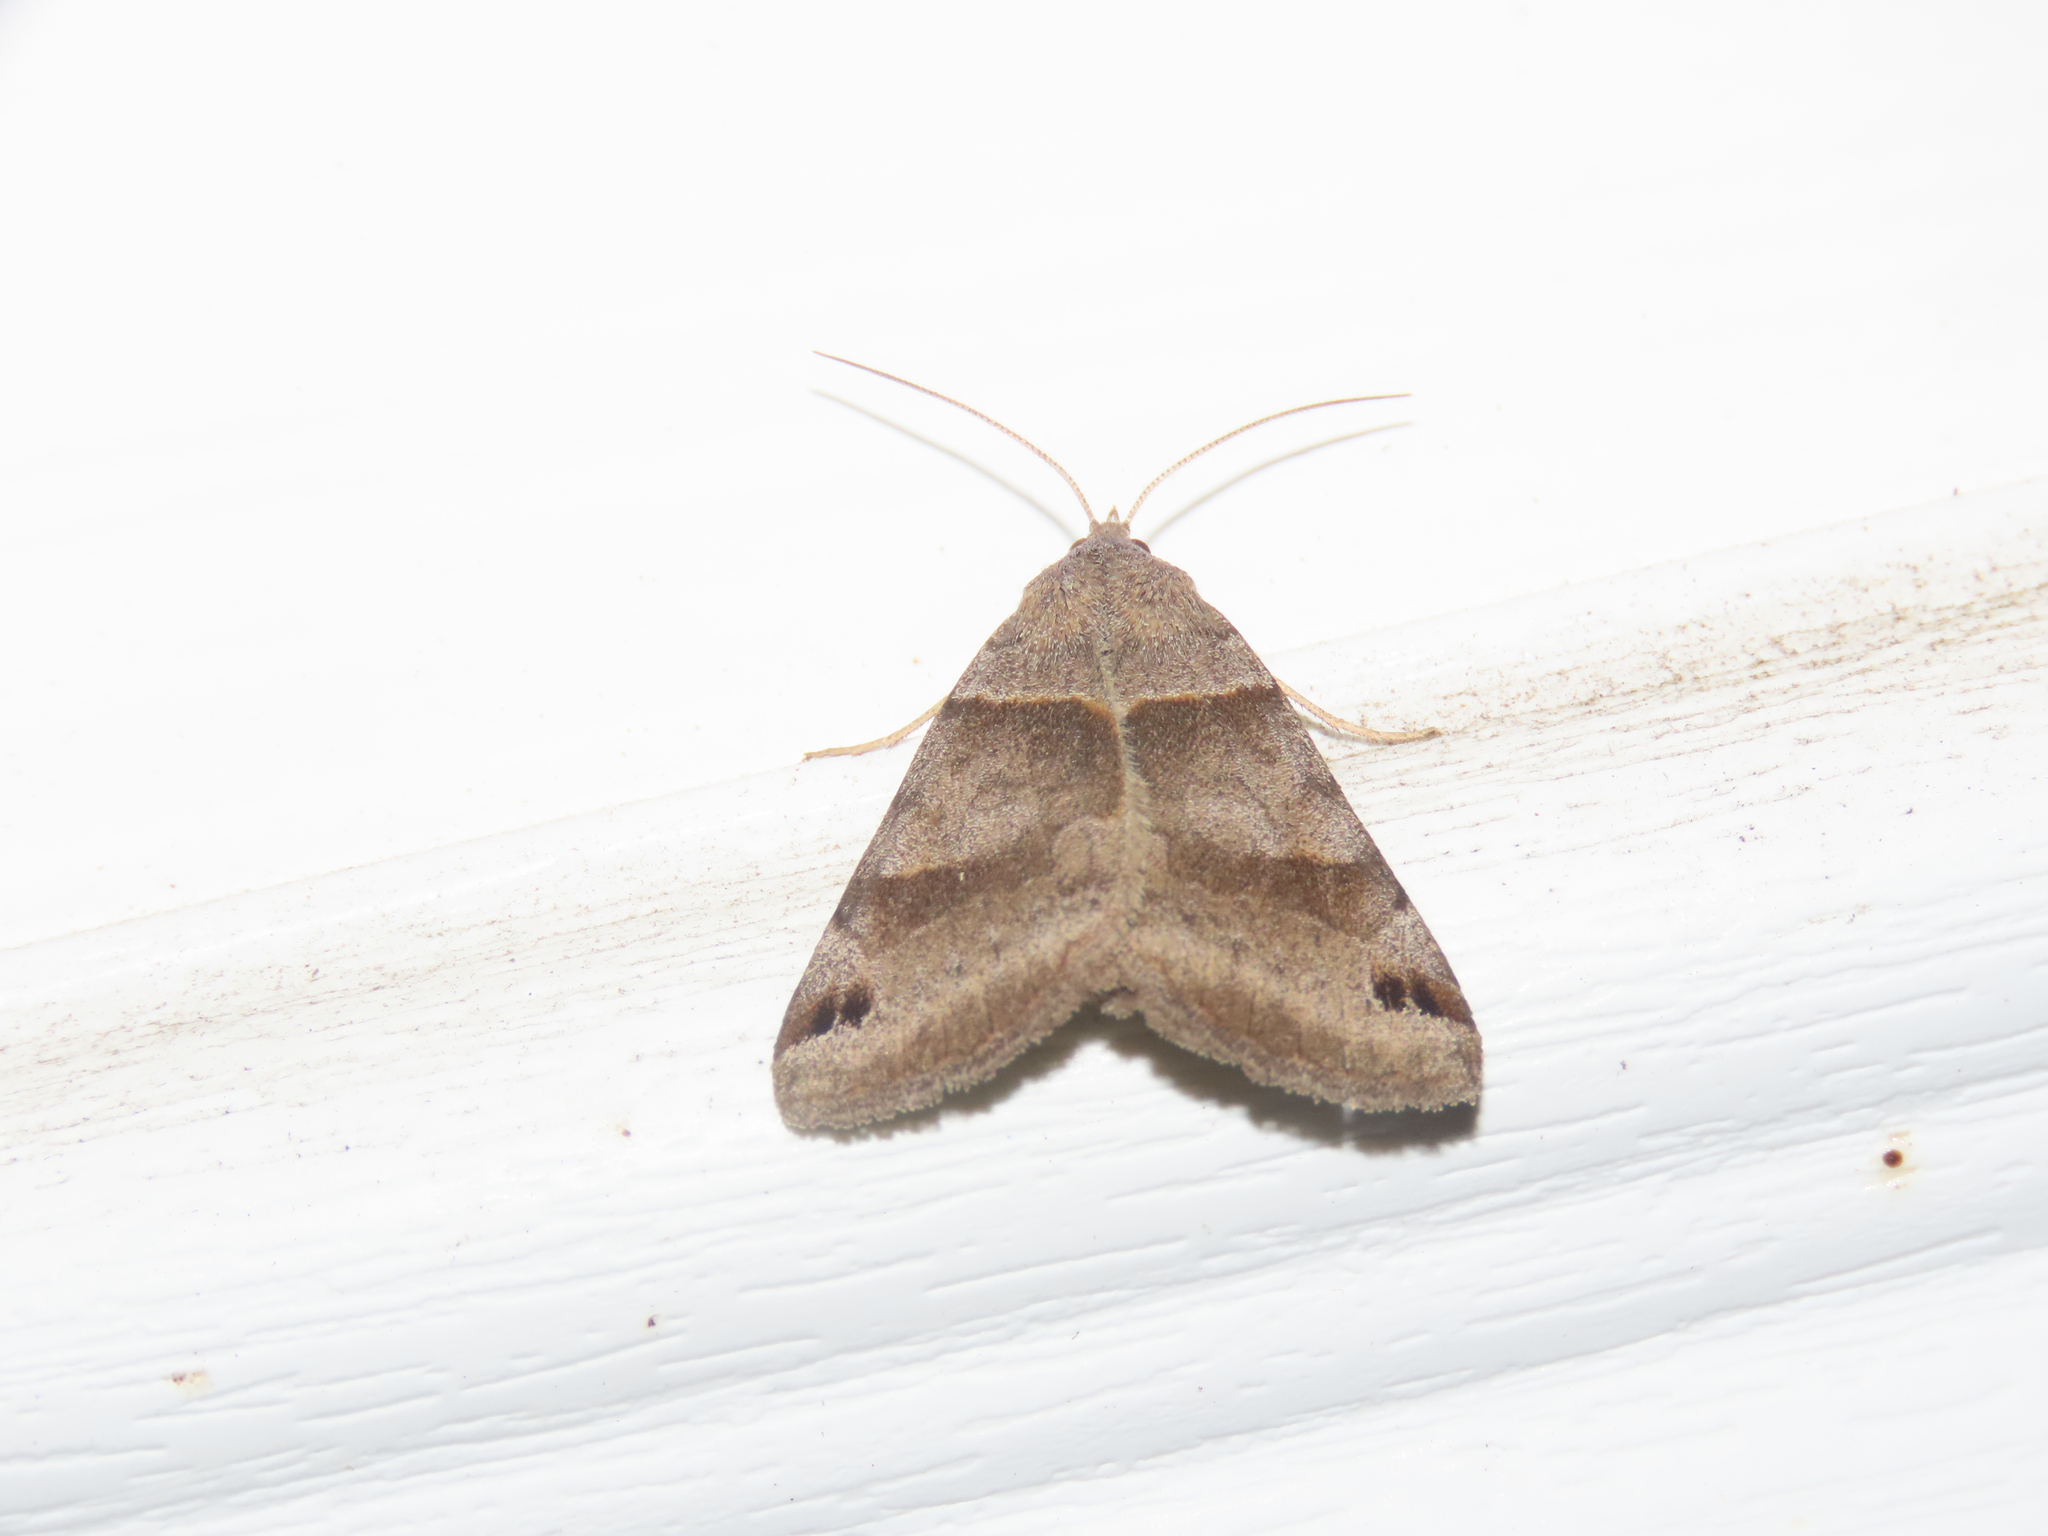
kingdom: Animalia
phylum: Arthropoda
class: Insecta
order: Lepidoptera
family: Erebidae
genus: Caenurgina
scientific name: Caenurgina crassiuscula
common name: Double-barred
